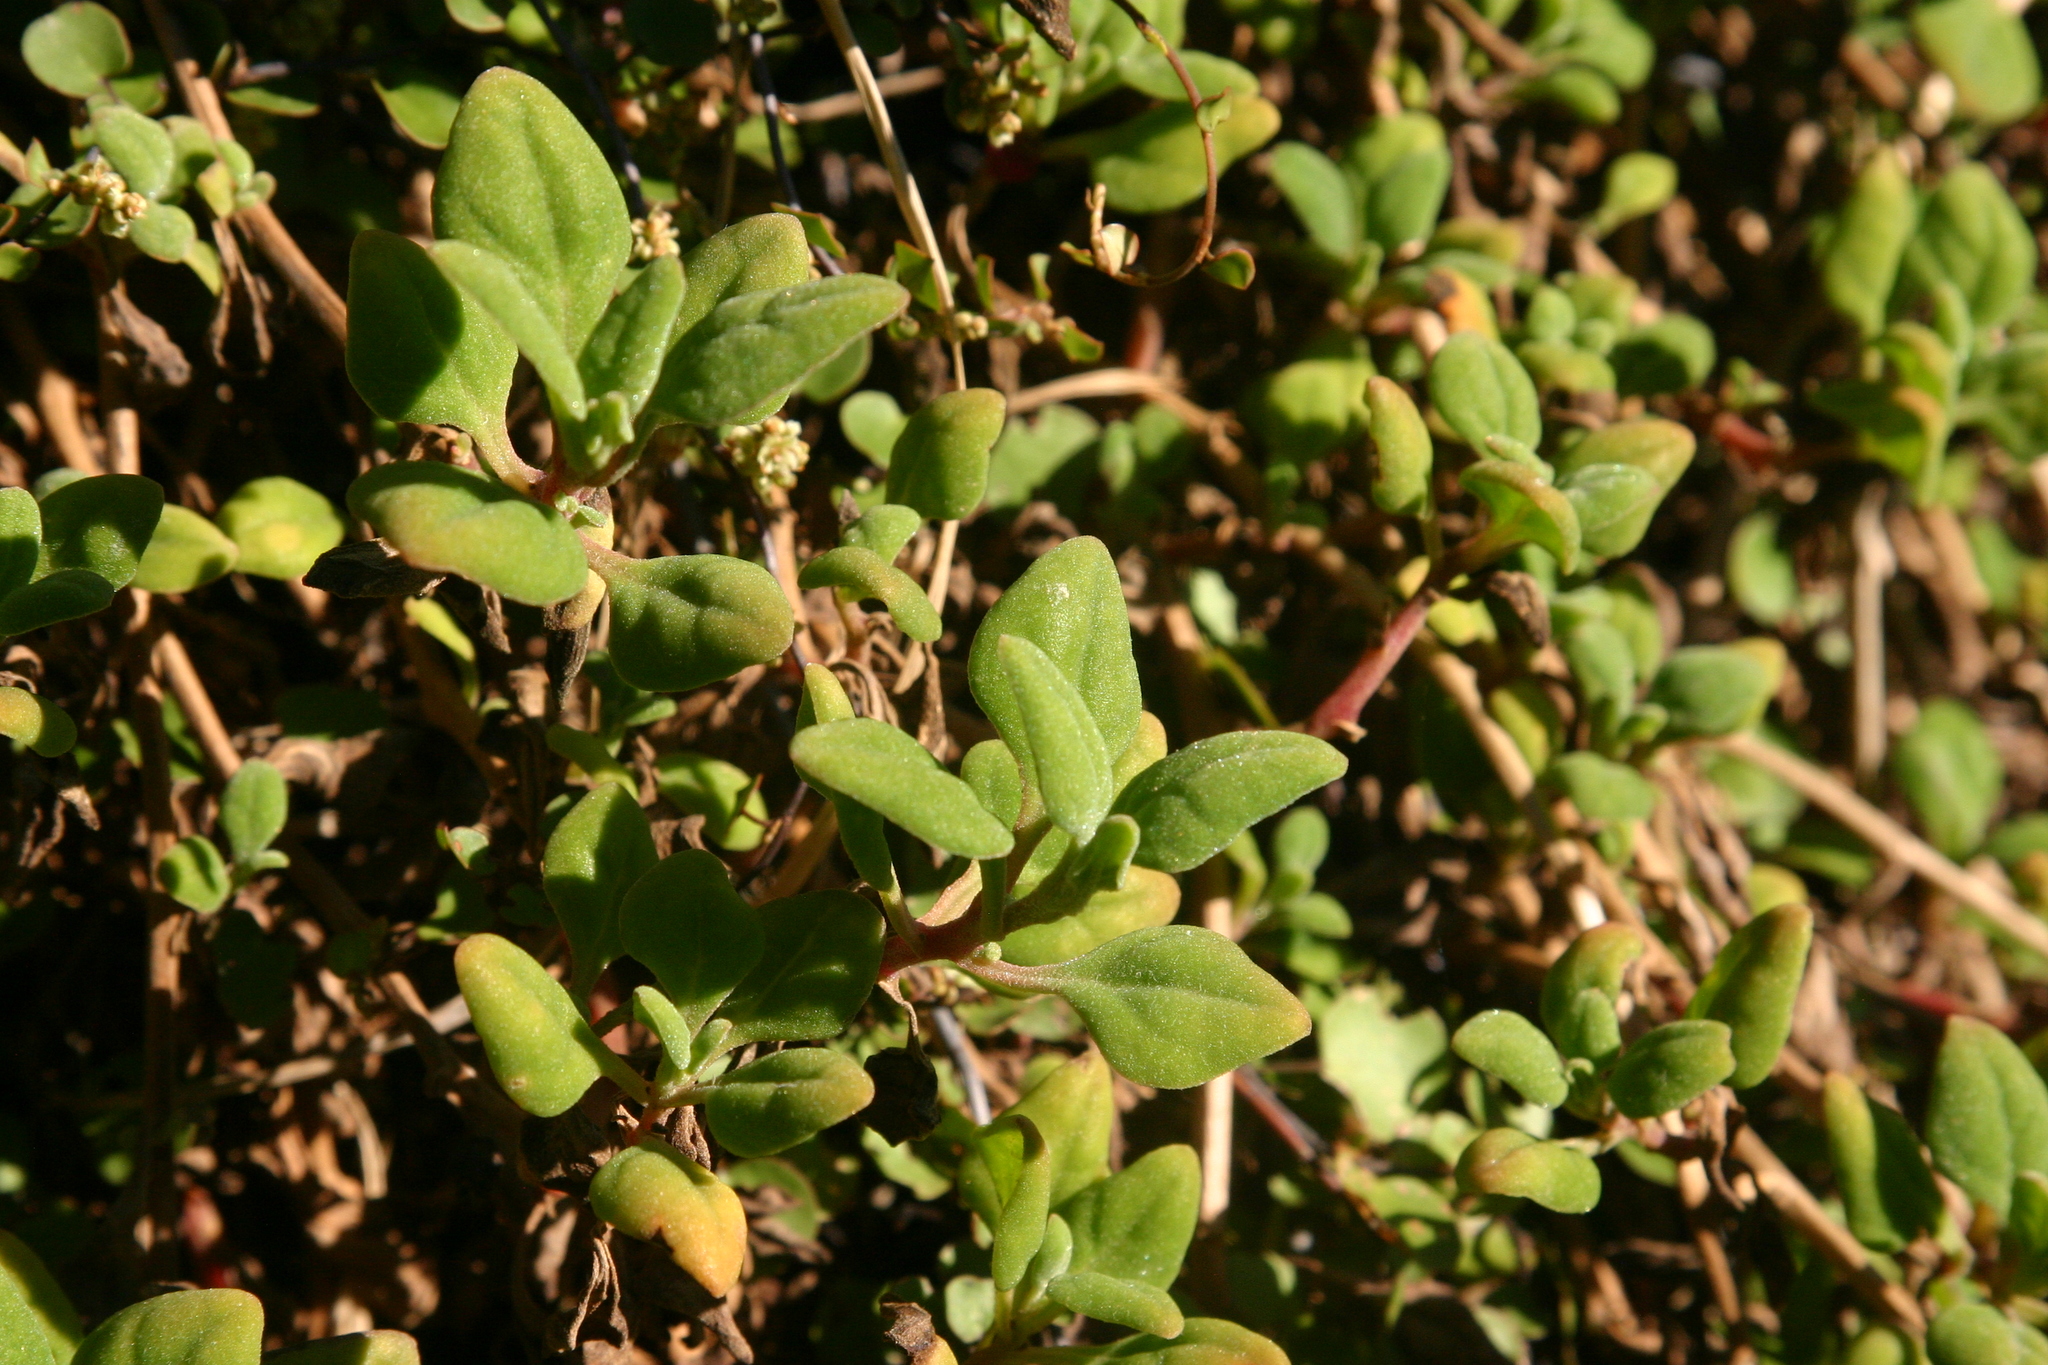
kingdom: Plantae
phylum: Tracheophyta
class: Magnoliopsida
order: Caryophyllales
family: Aizoaceae
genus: Tetragonia
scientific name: Tetragonia implexicoma
